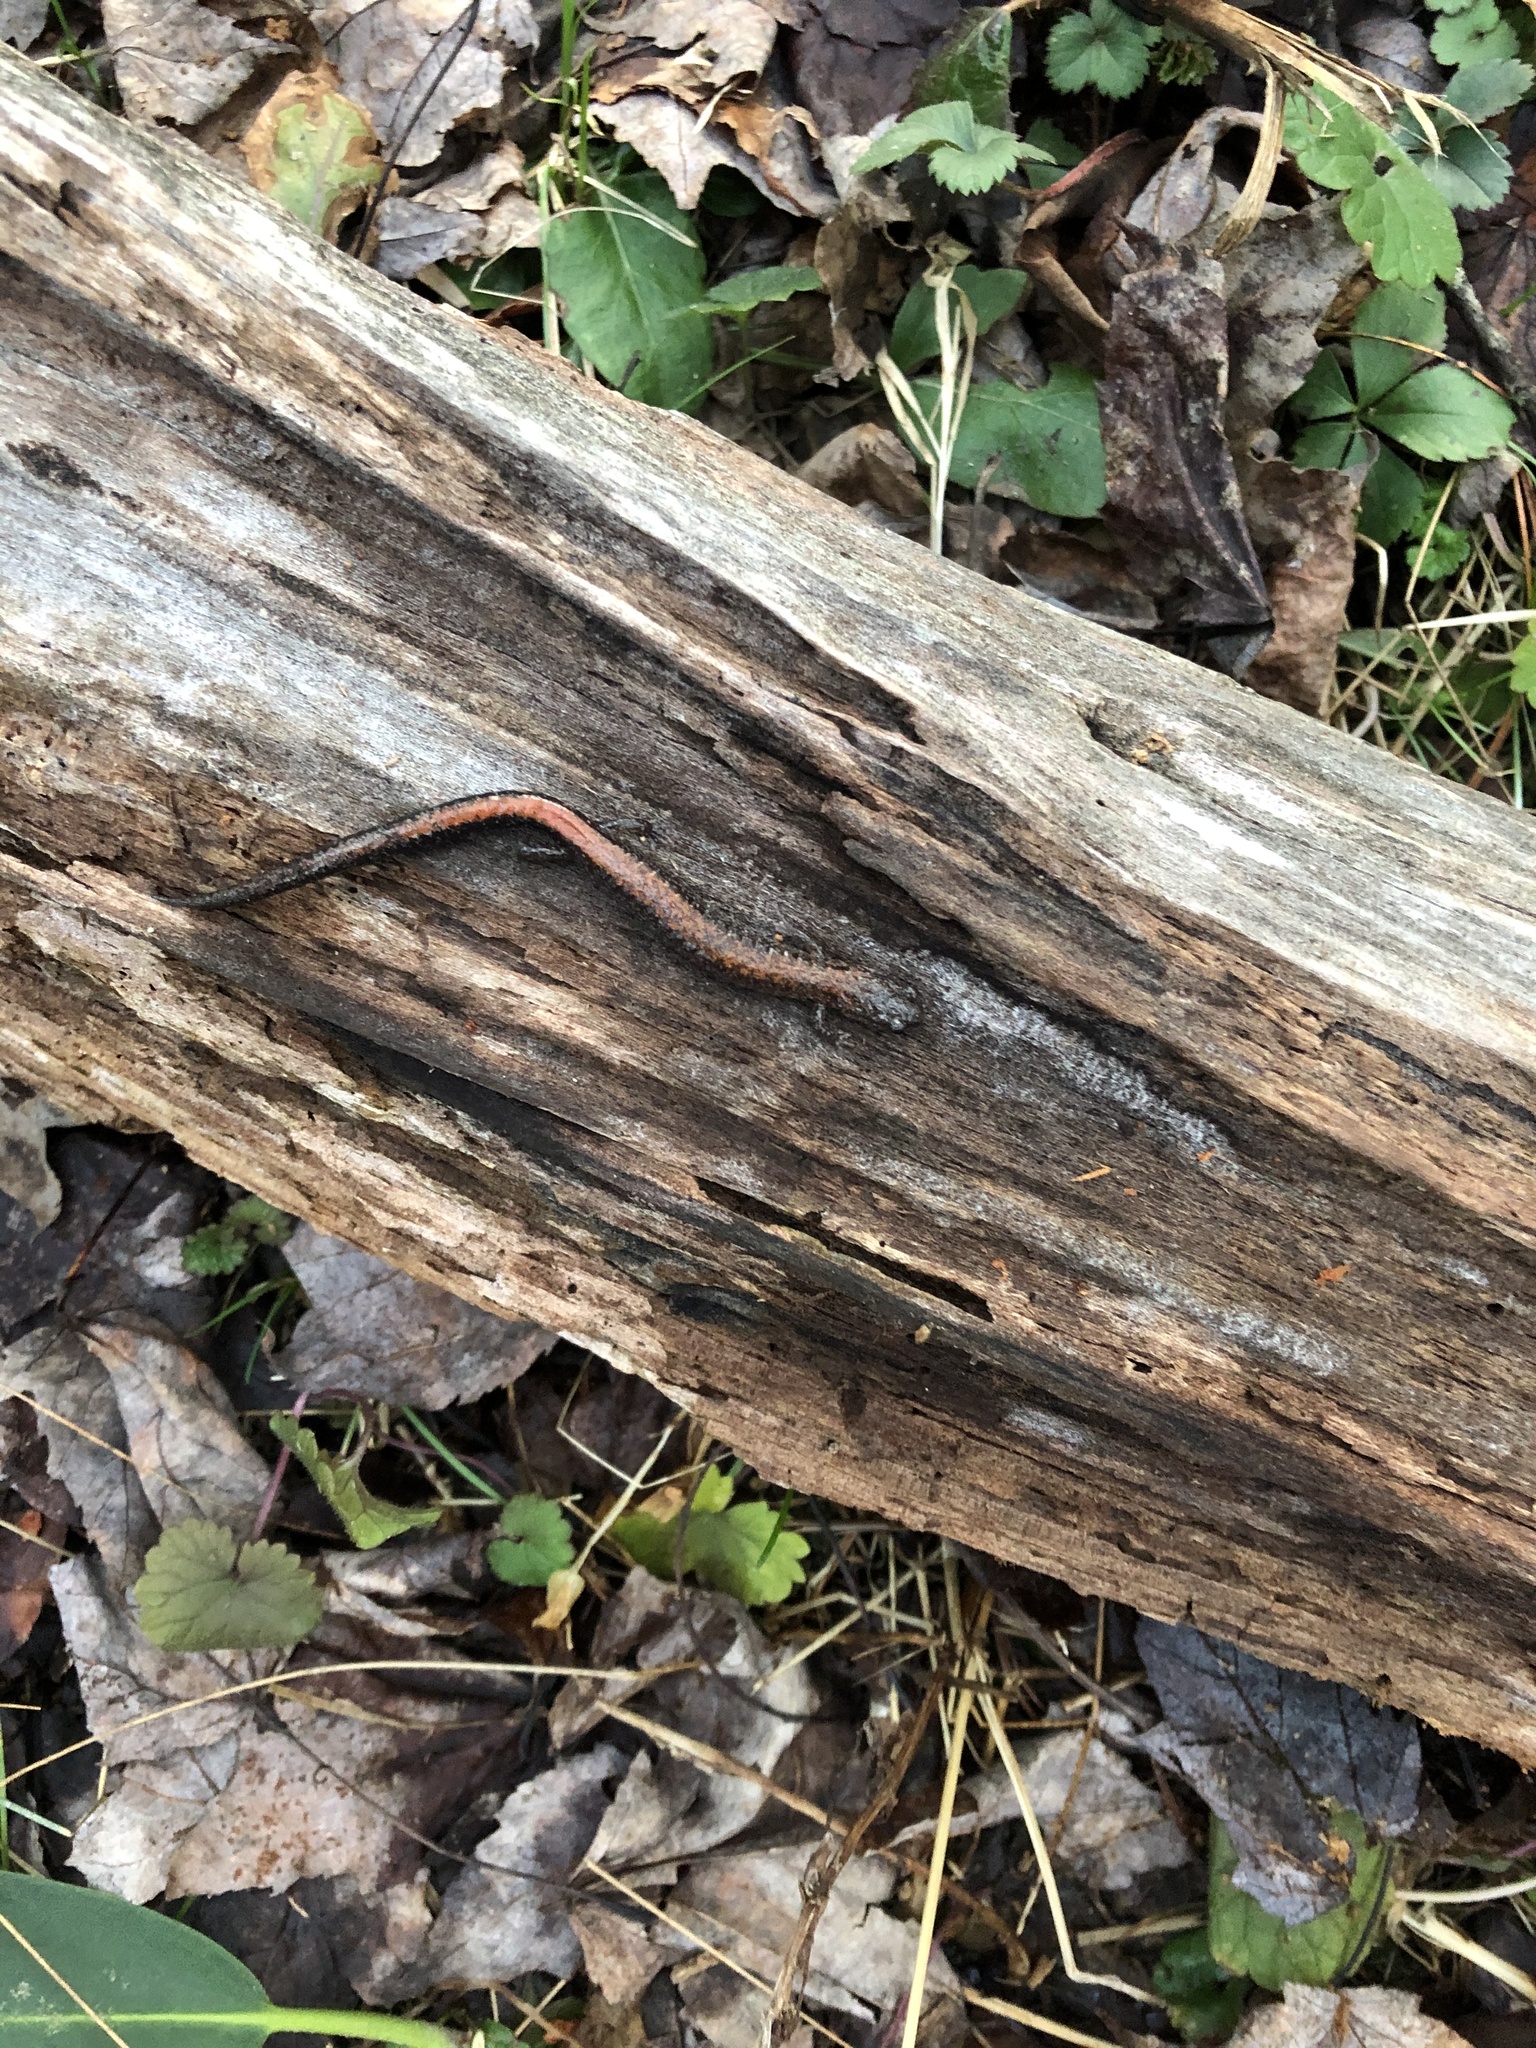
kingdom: Animalia
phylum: Chordata
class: Amphibia
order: Caudata
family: Plethodontidae
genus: Plethodon
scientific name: Plethodon cinereus
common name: Redback salamander
